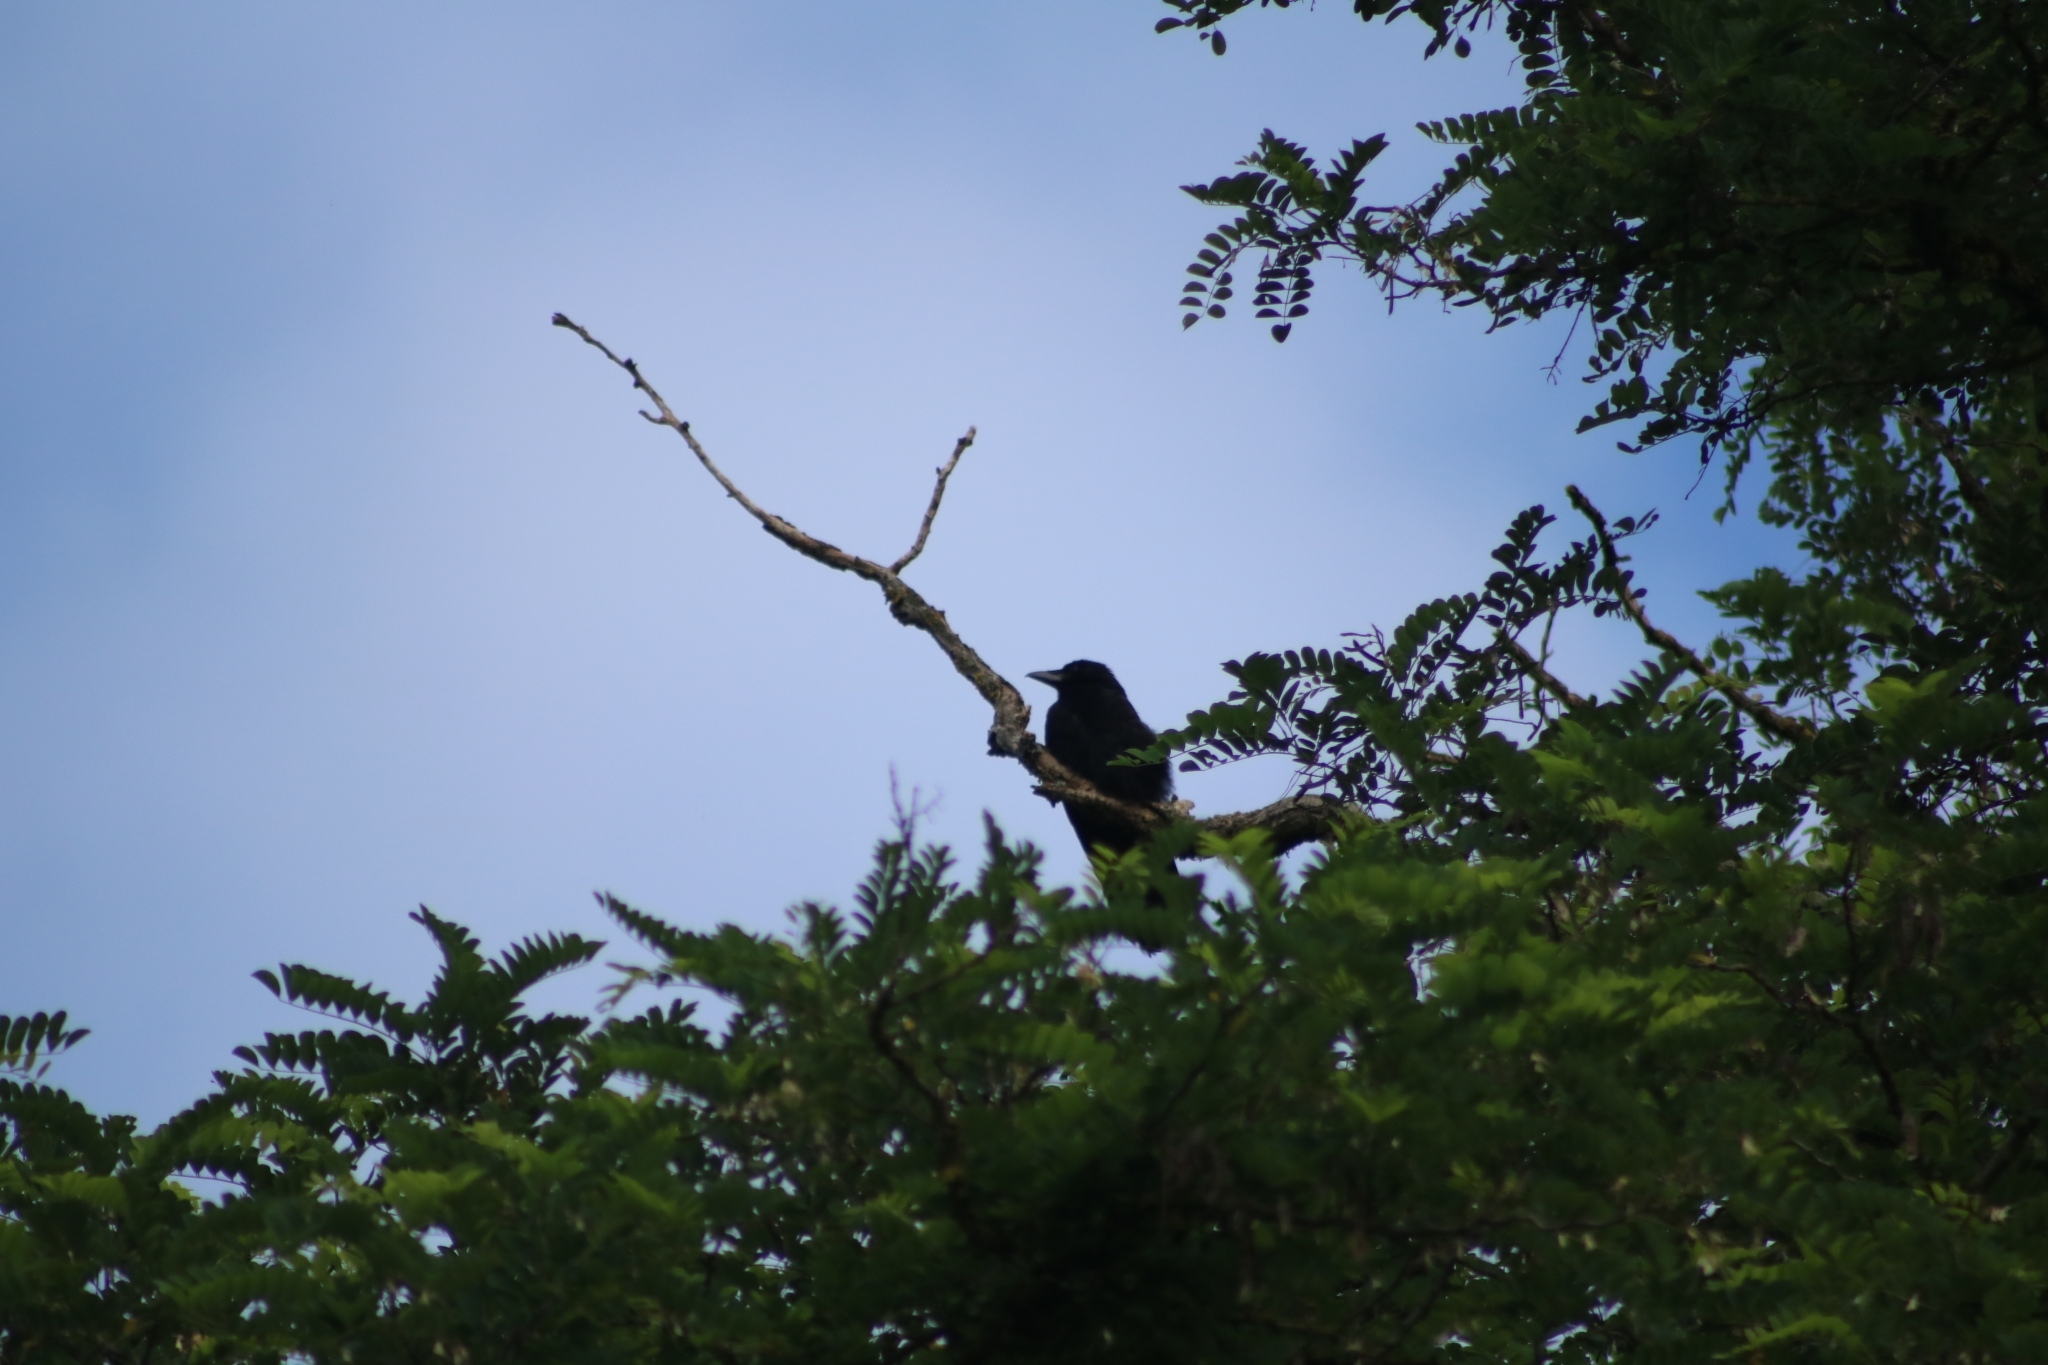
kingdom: Animalia
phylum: Chordata
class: Aves
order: Passeriformes
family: Corvidae
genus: Corvus
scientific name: Corvus corone
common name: Carrion crow
